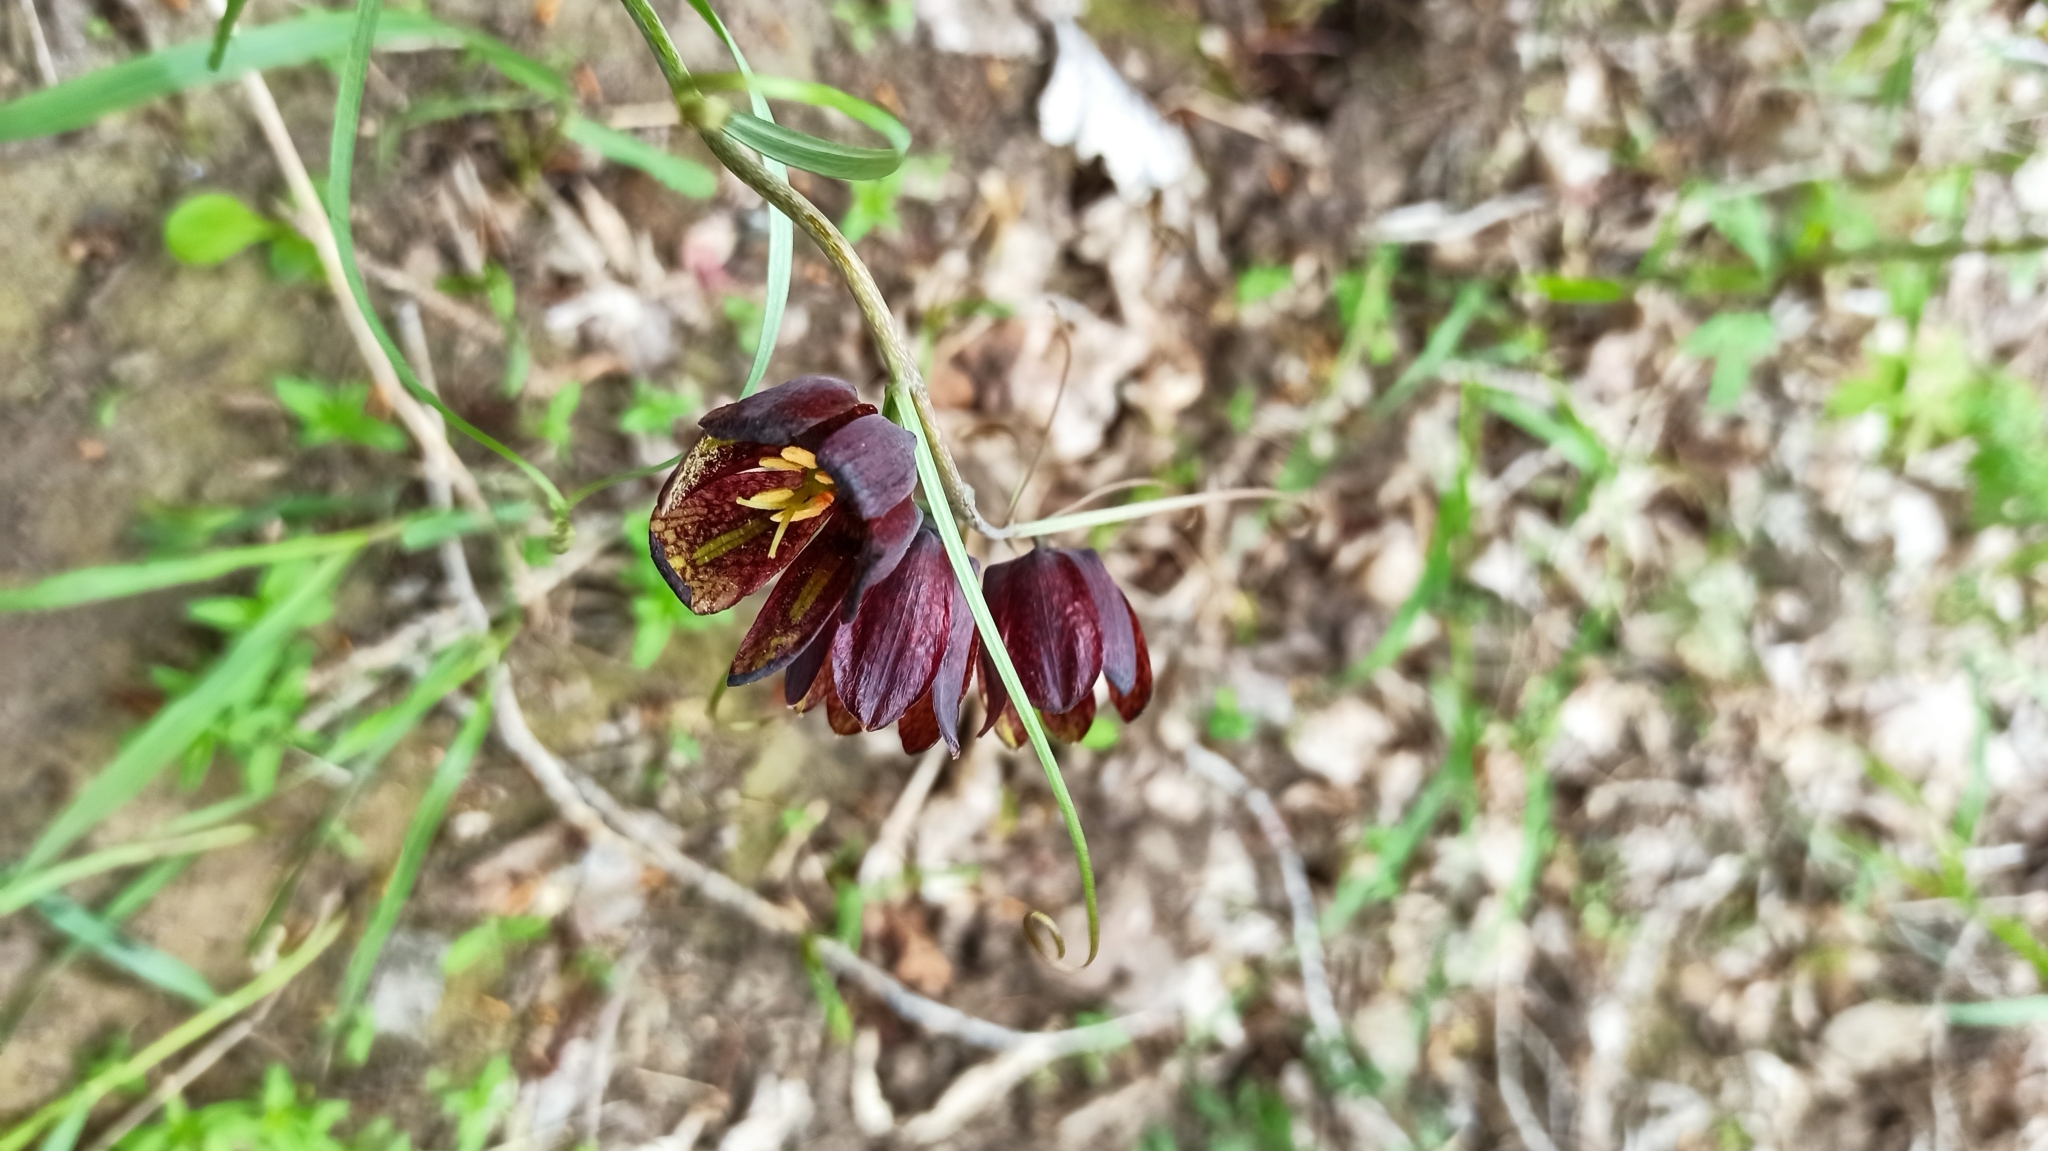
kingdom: Plantae
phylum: Tracheophyta
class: Liliopsida
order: Liliales
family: Liliaceae
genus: Fritillaria
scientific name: Fritillaria ruthenica
